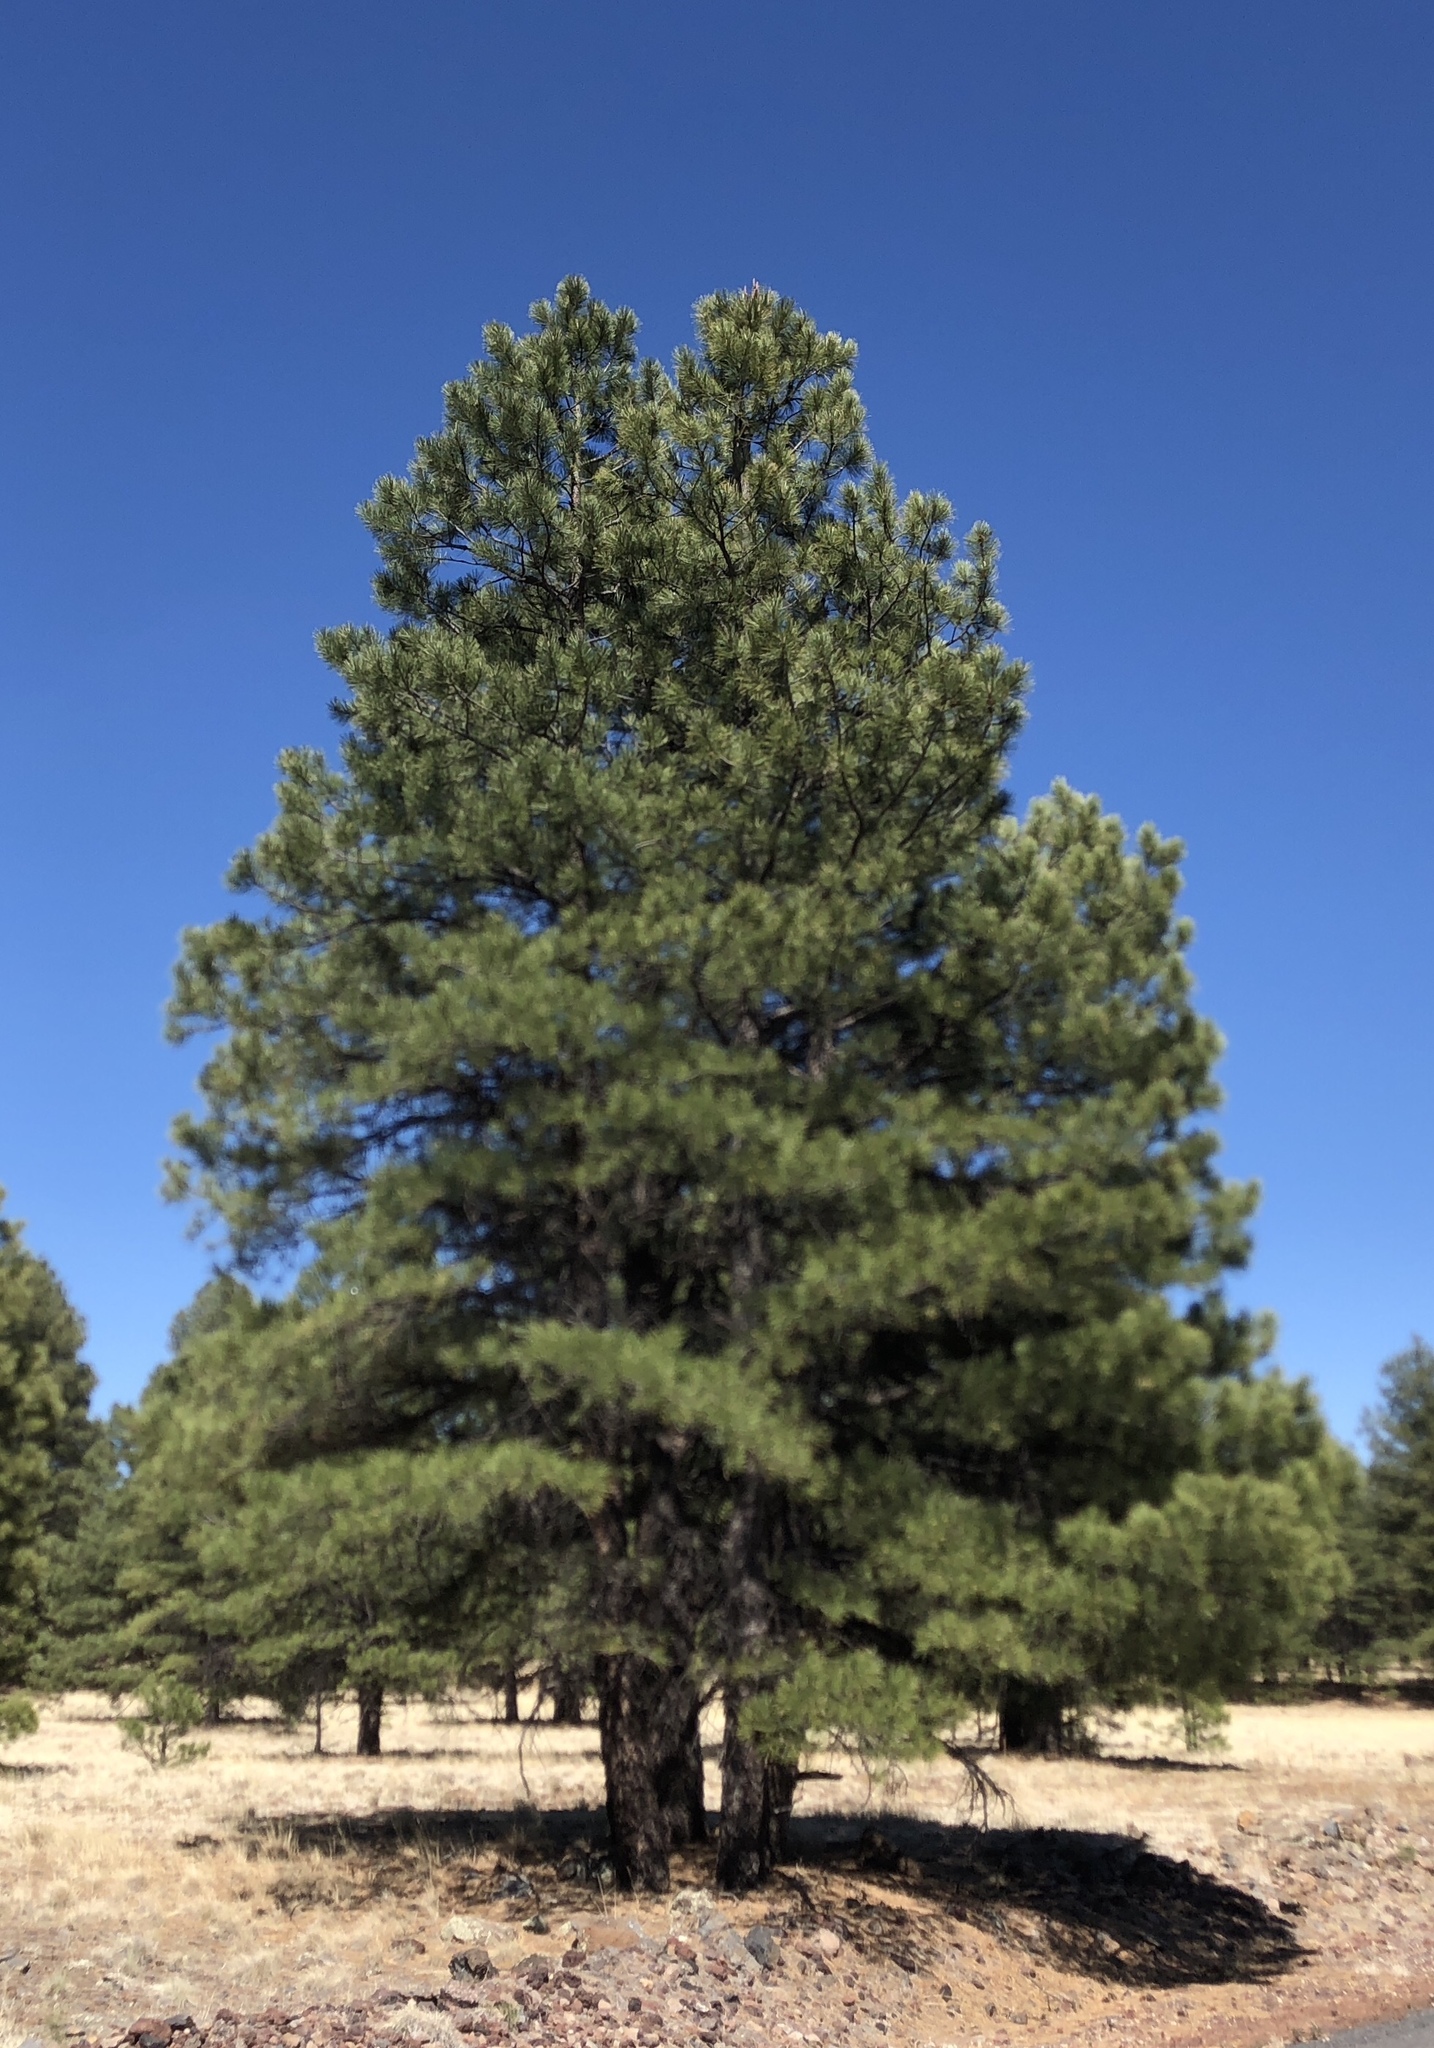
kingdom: Plantae
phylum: Tracheophyta
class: Pinopsida
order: Pinales
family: Pinaceae
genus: Pinus
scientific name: Pinus ponderosa
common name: Western yellow-pine
